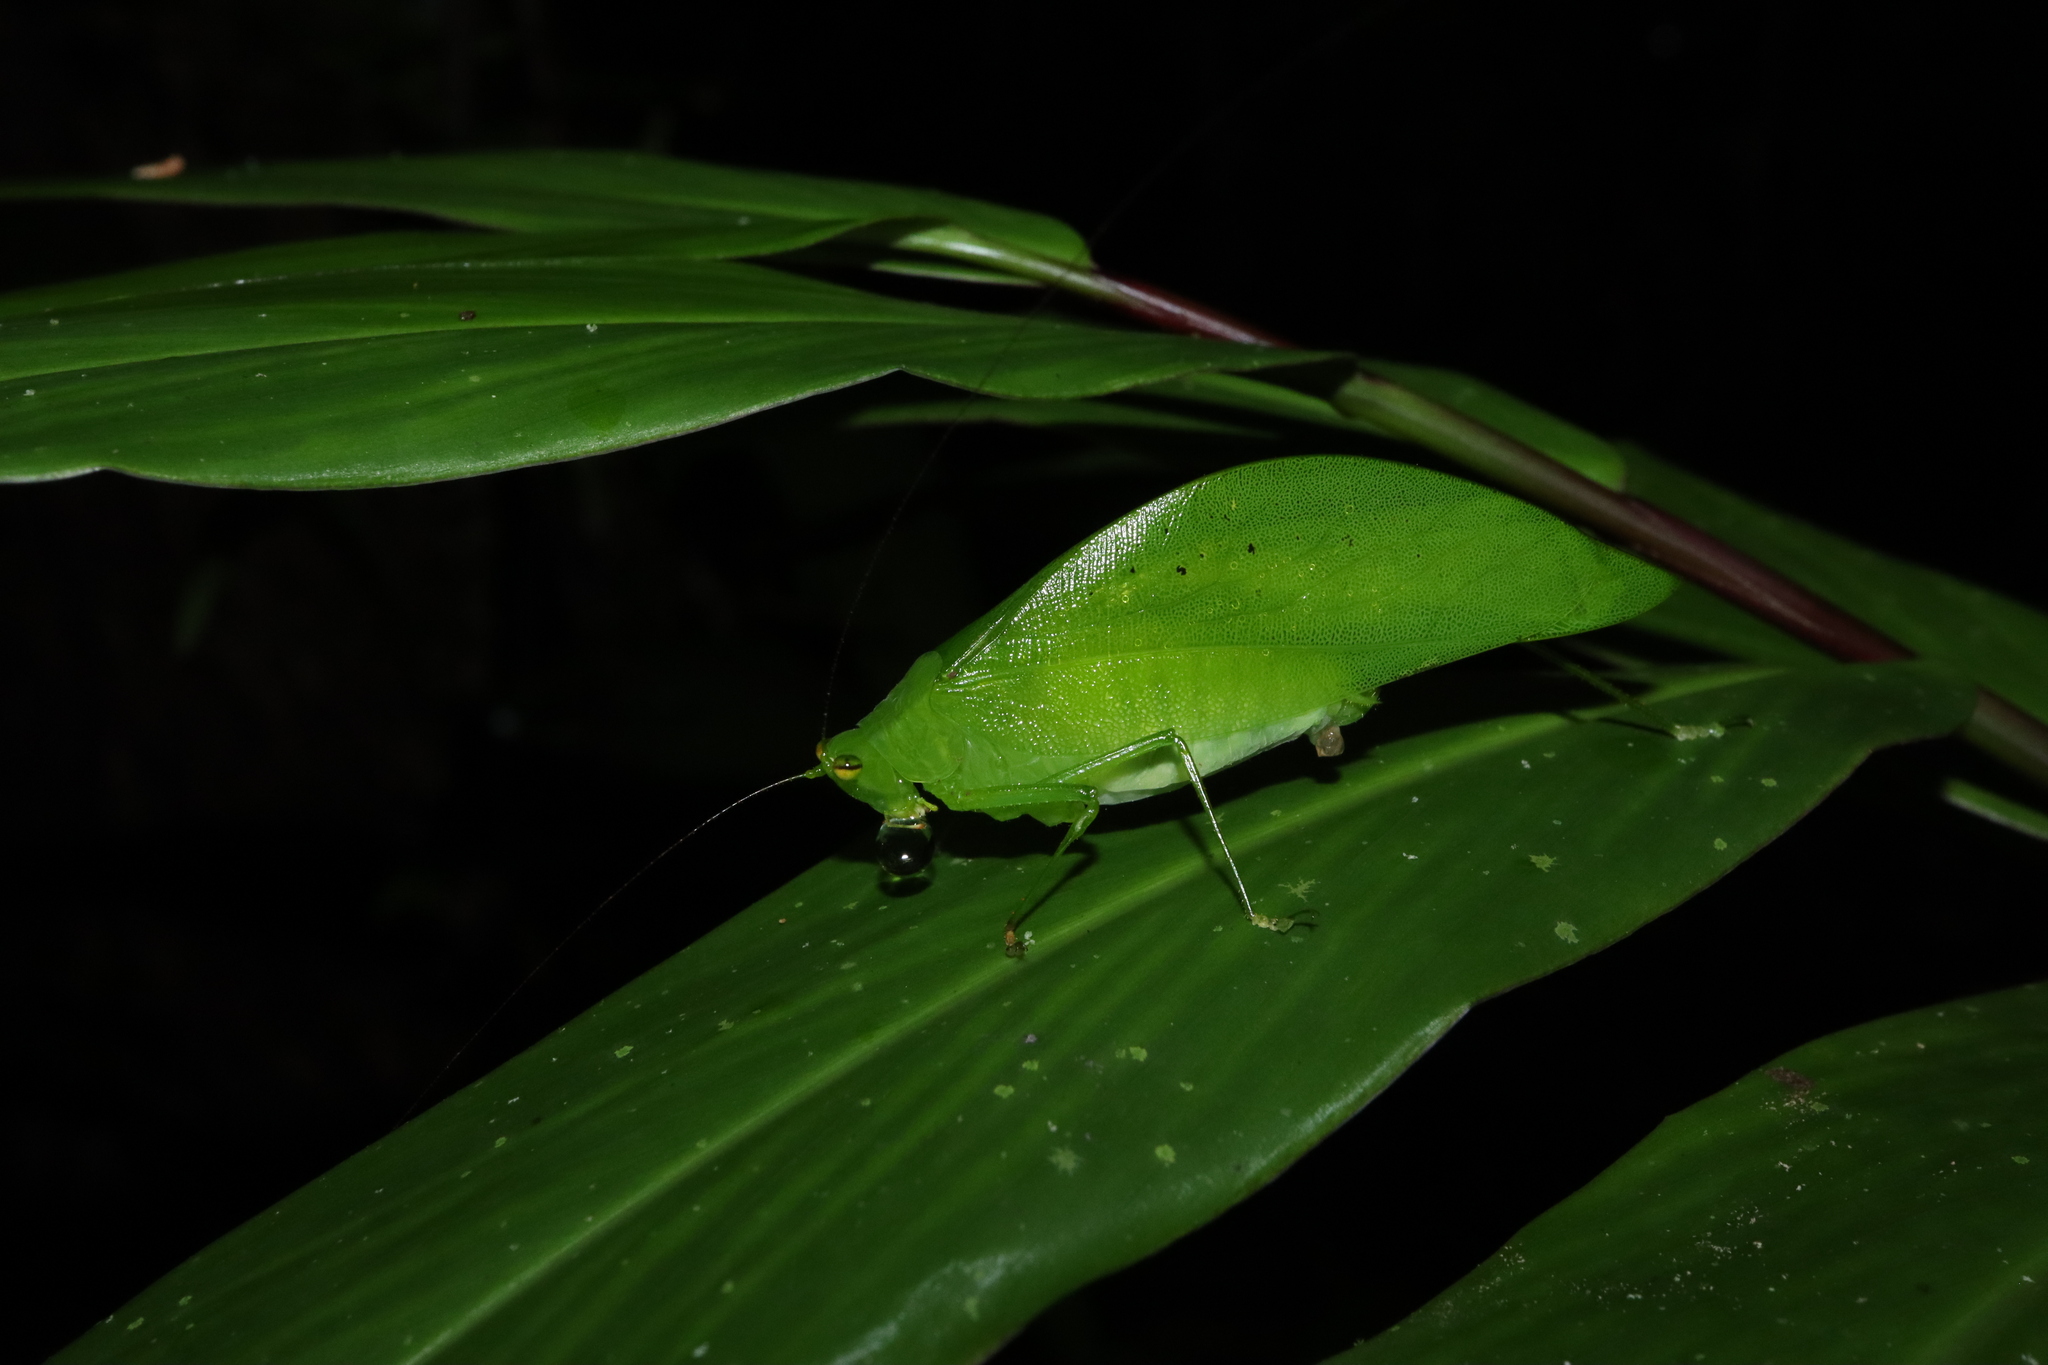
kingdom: Animalia
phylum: Arthropoda
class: Insecta
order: Orthoptera
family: Tettigoniidae
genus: Currimundria
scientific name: Currimundria delicata
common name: Flying fox katydid
